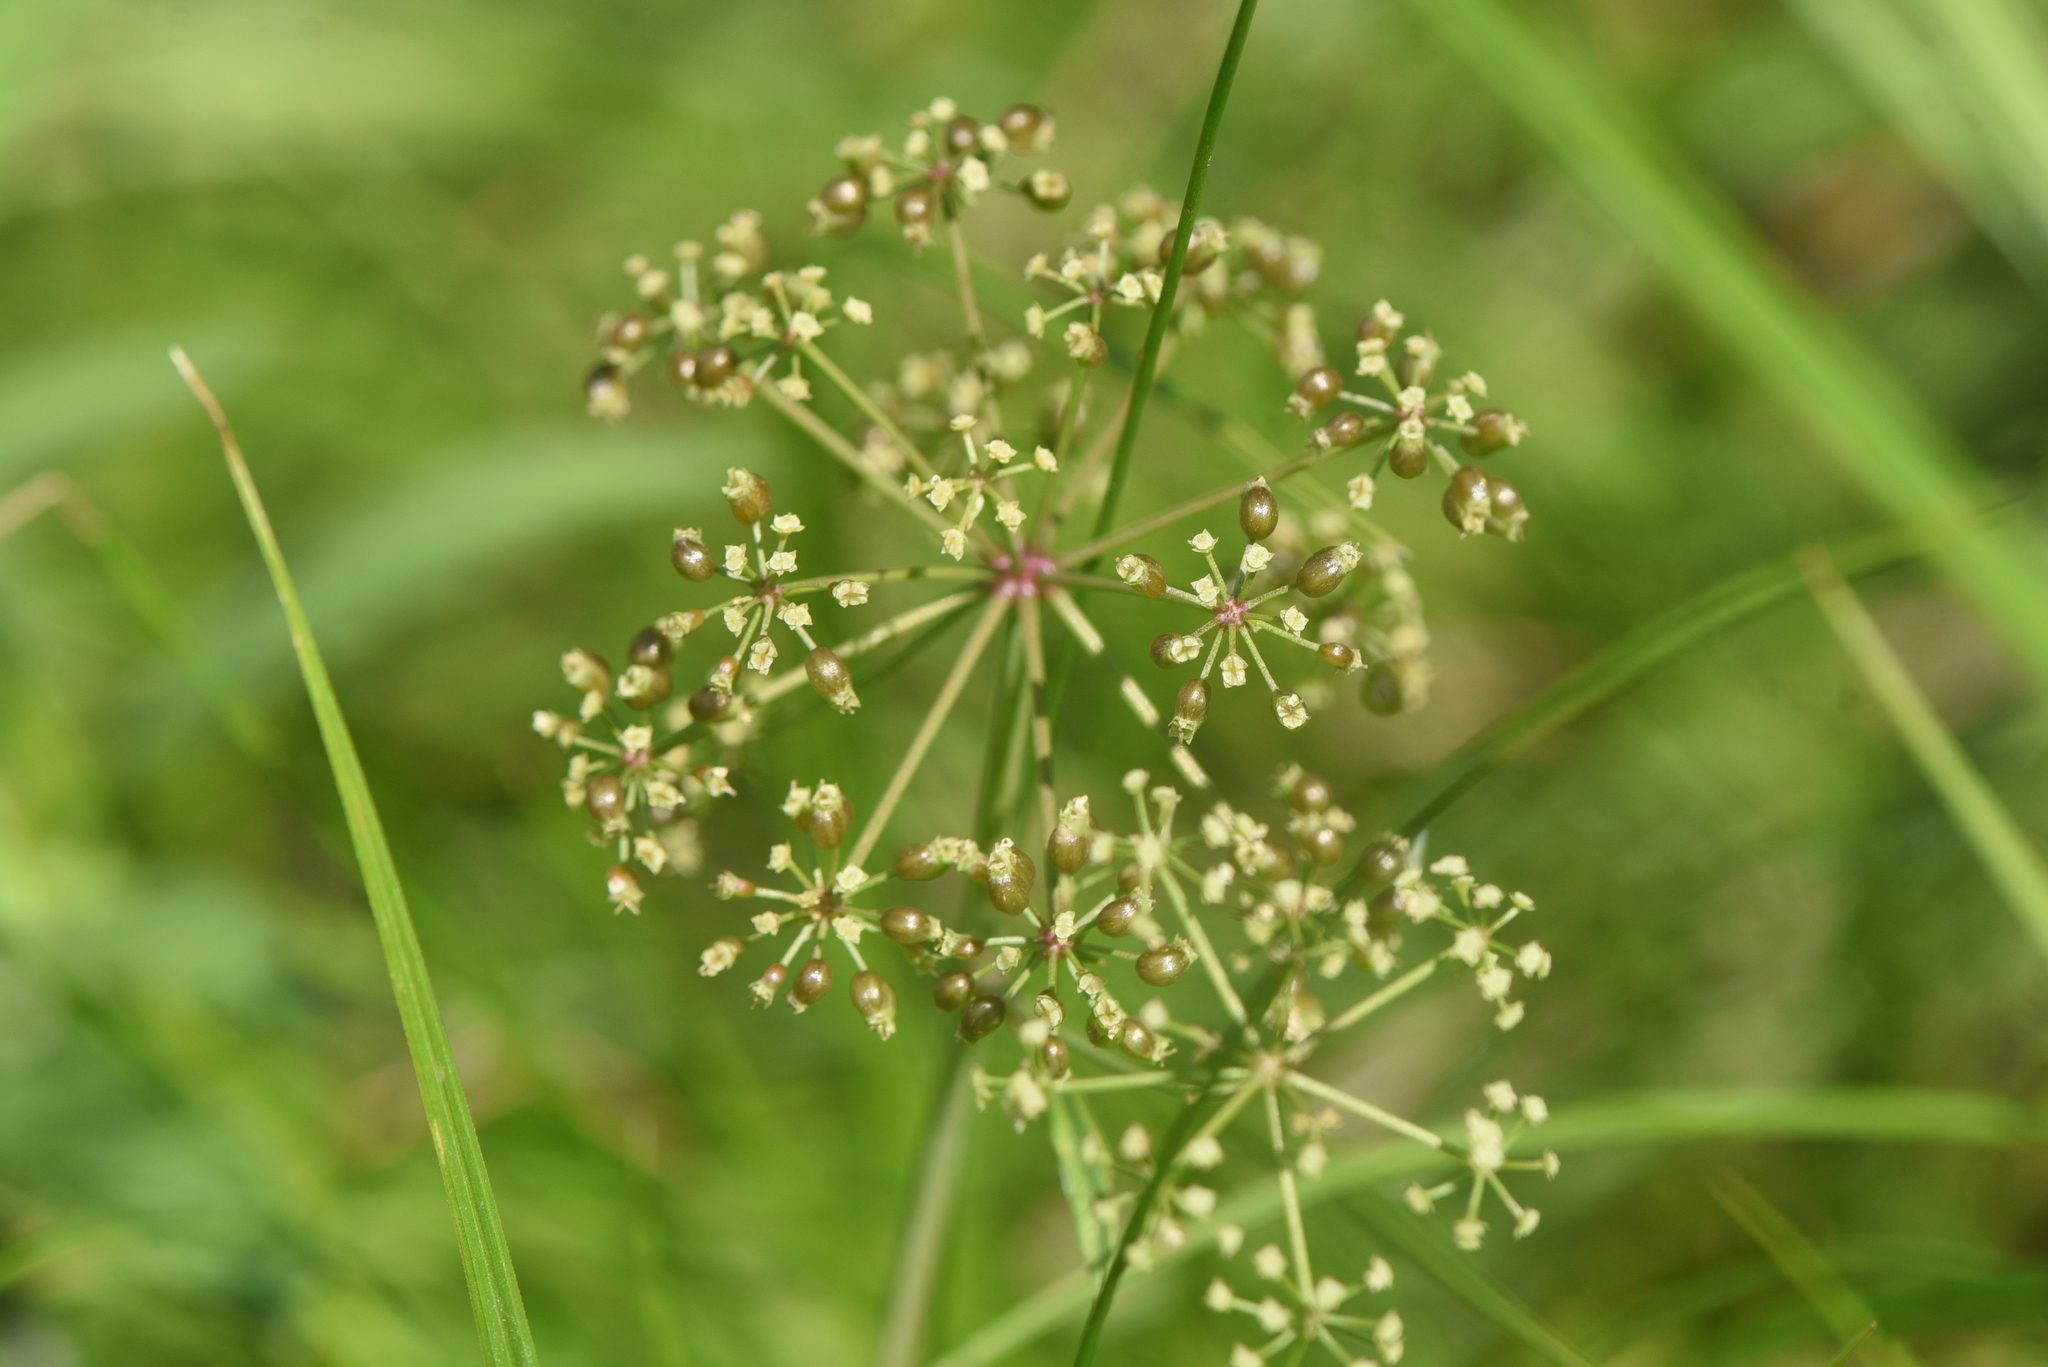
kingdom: Plantae
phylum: Tracheophyta
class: Magnoliopsida
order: Apiales
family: Apiaceae
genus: Cicuta
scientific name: Cicuta douglasii
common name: Western water-hemlock
